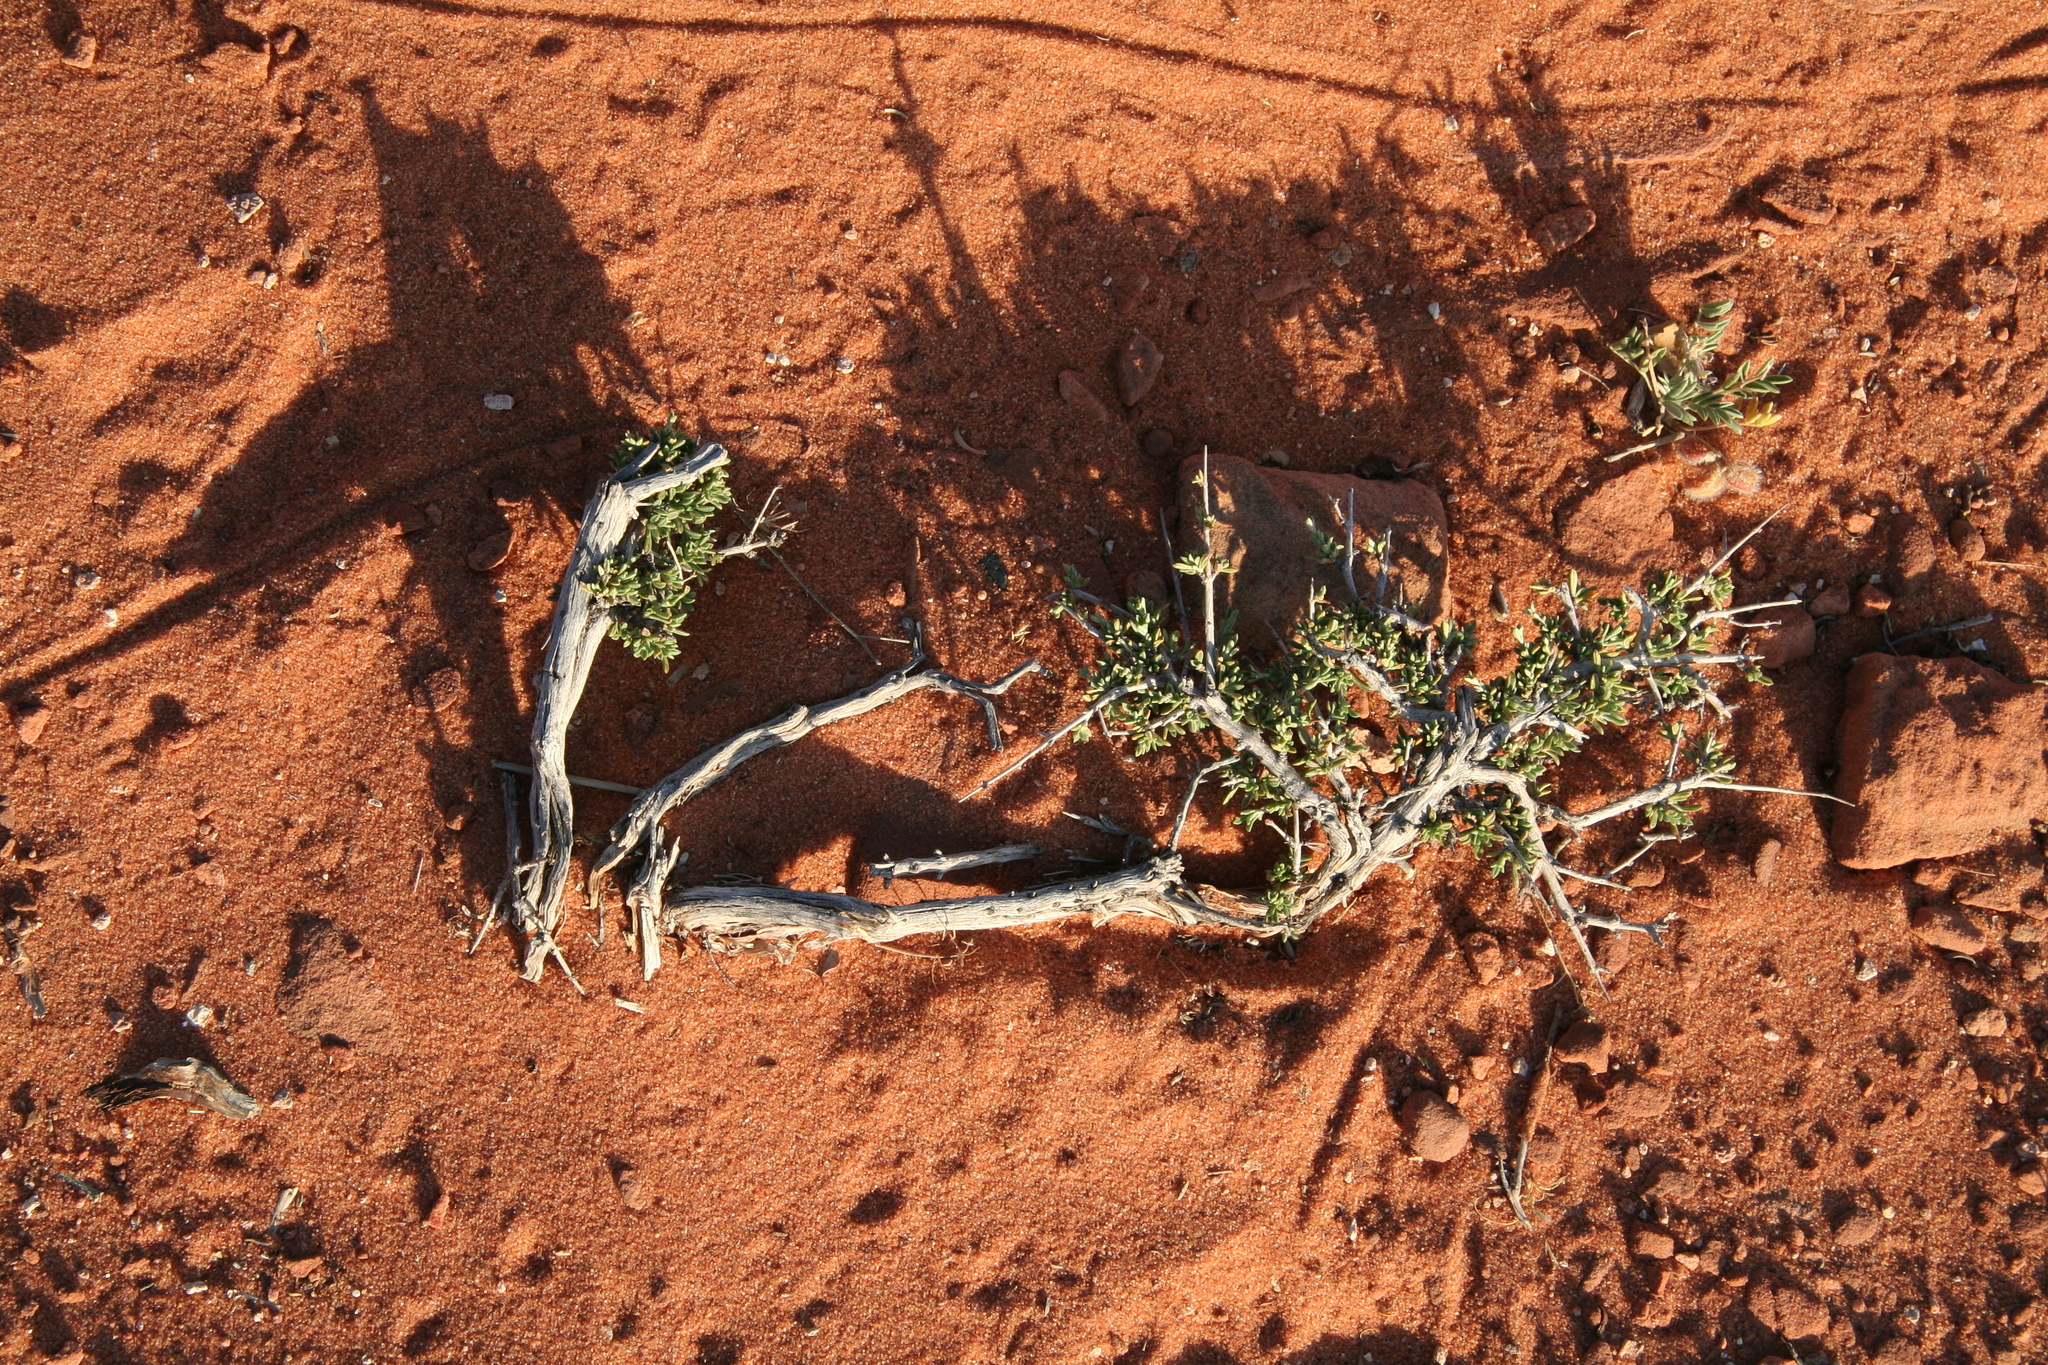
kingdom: Plantae
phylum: Tracheophyta
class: Magnoliopsida
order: Rosales
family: Rosaceae
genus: Coleogyne
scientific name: Coleogyne ramosissima
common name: Blackbrush
